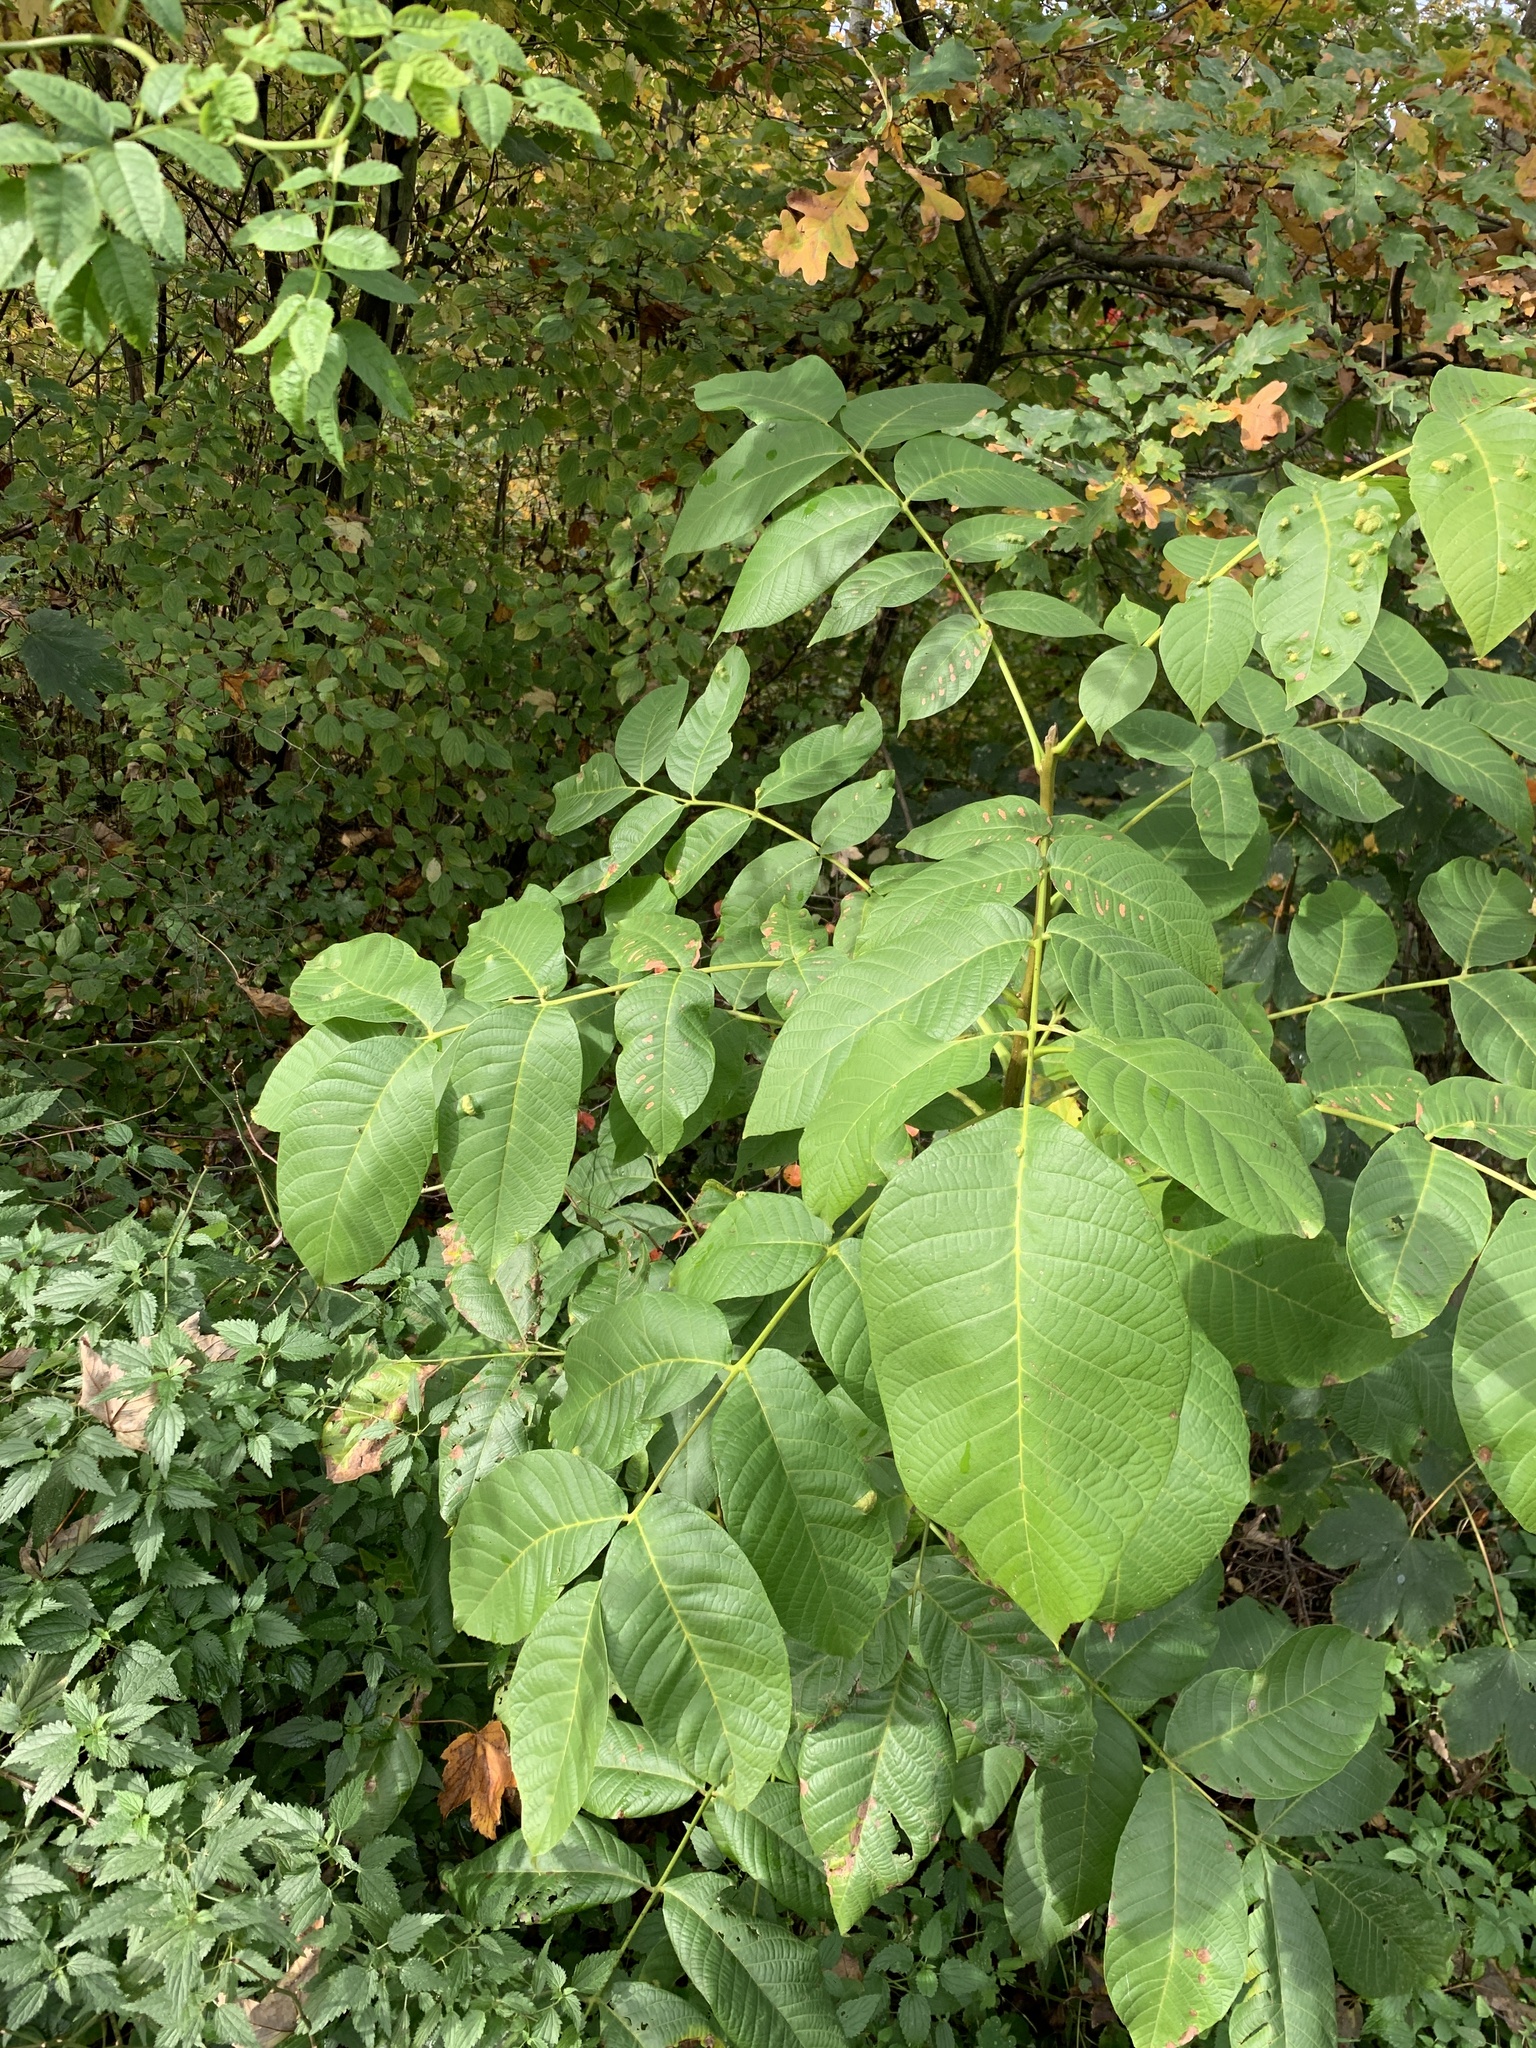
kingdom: Plantae
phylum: Tracheophyta
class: Magnoliopsida
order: Fagales
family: Juglandaceae
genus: Juglans
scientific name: Juglans regia
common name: Walnut
